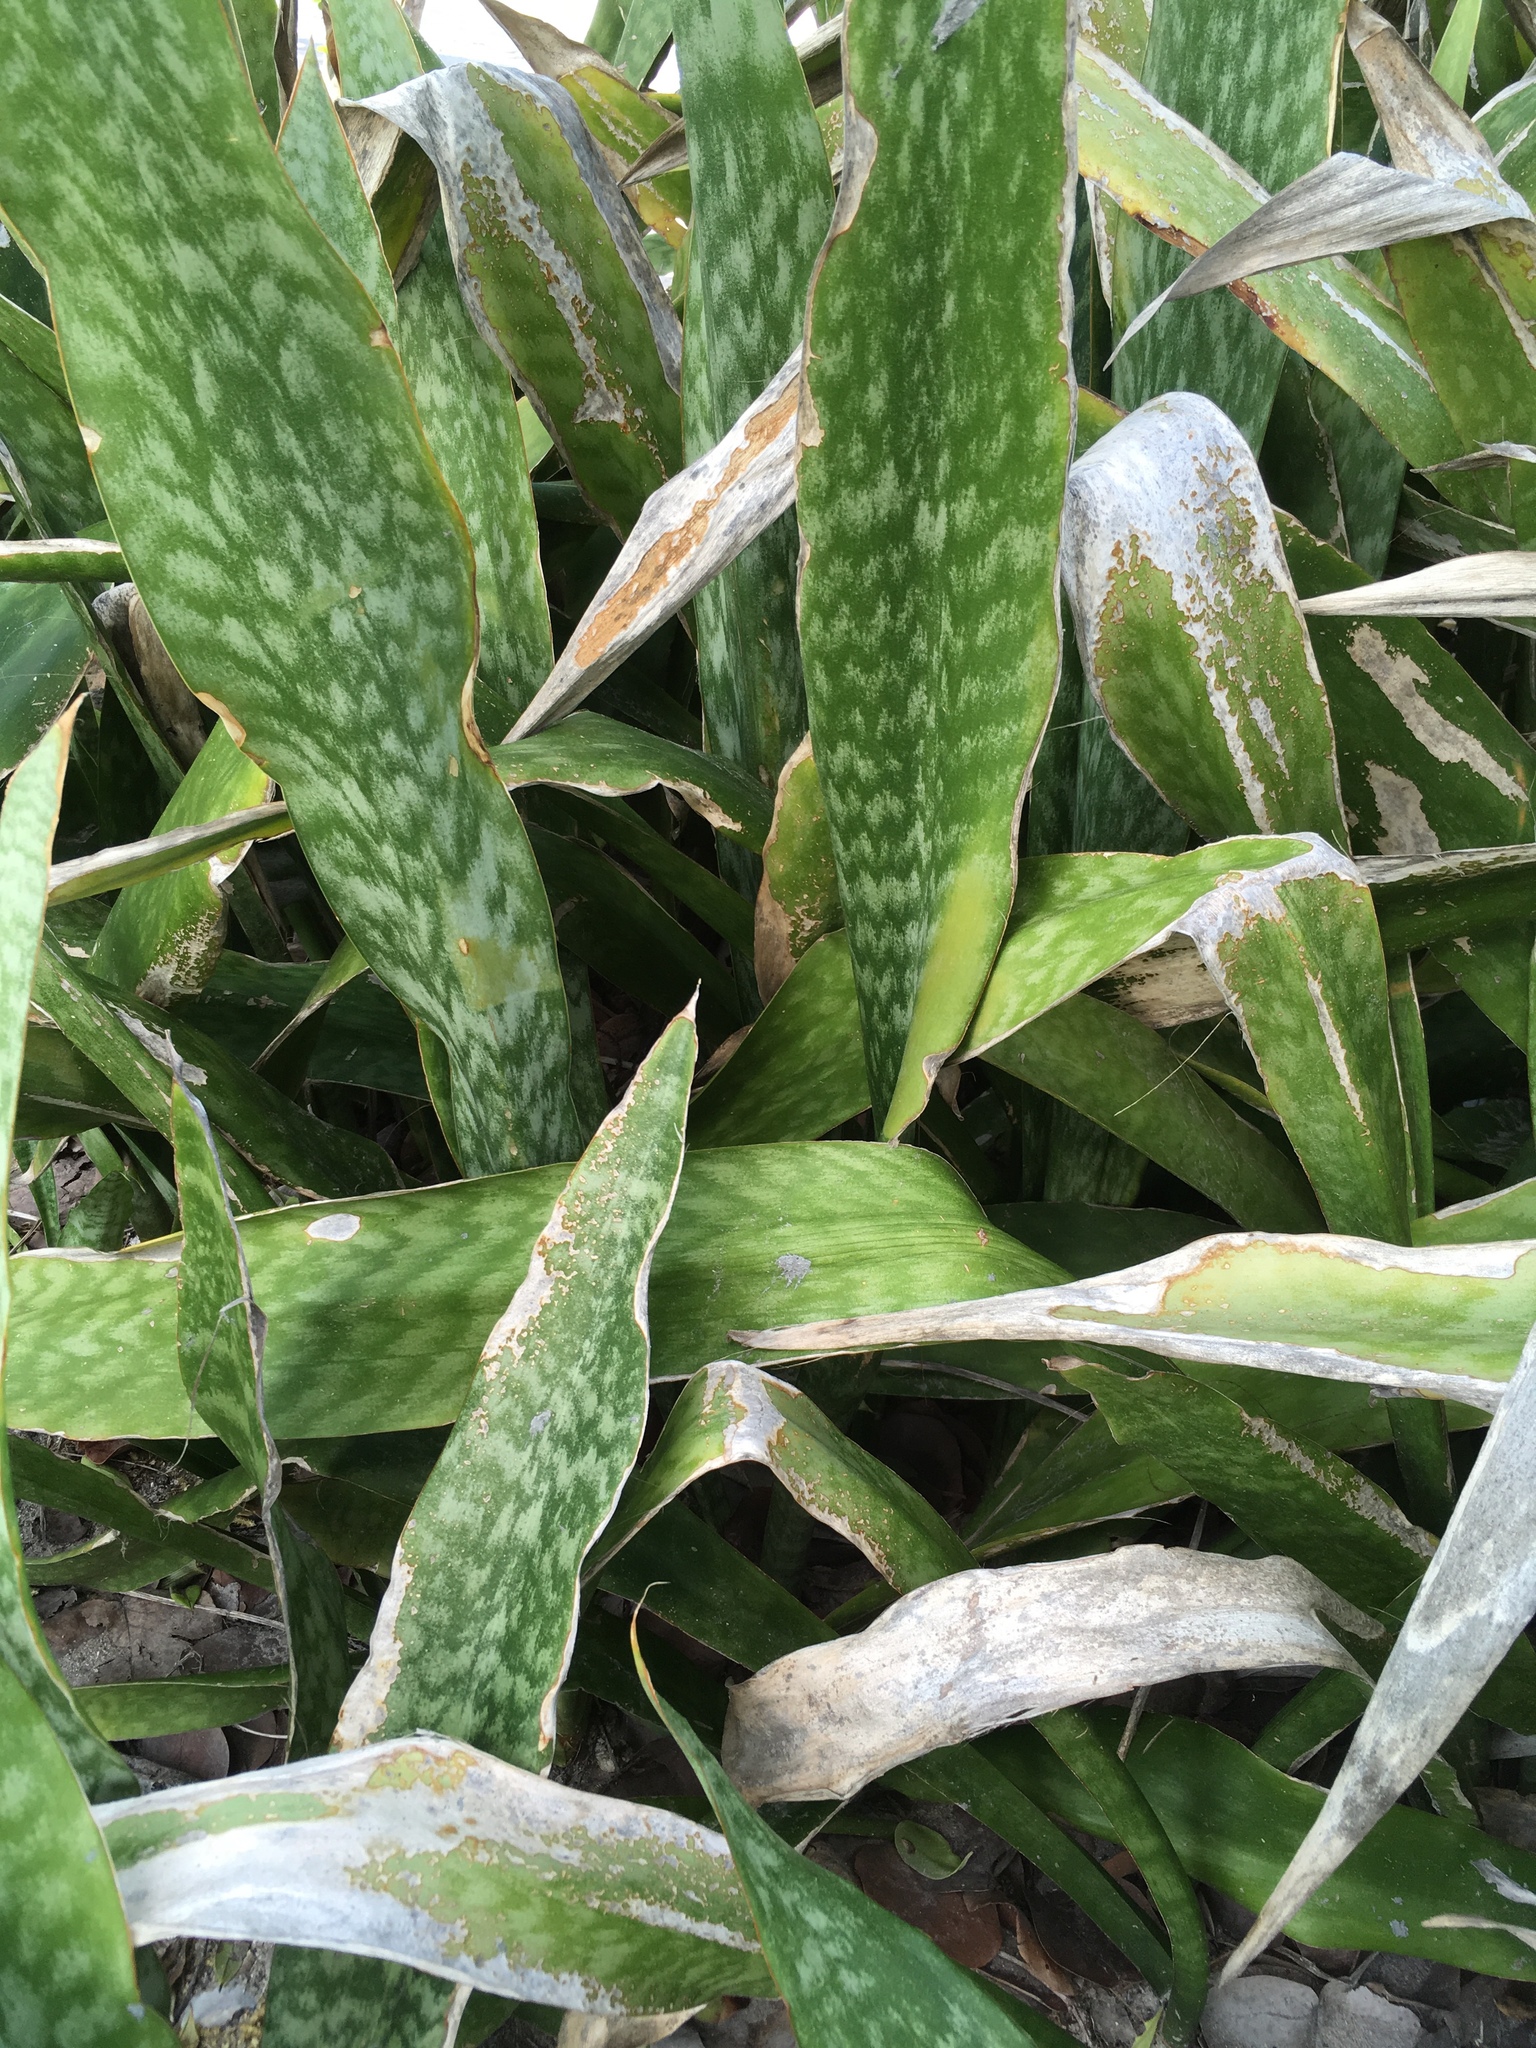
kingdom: Plantae
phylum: Tracheophyta
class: Liliopsida
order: Asparagales
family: Asparagaceae
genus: Dracaena
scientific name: Dracaena hyacinthoides
